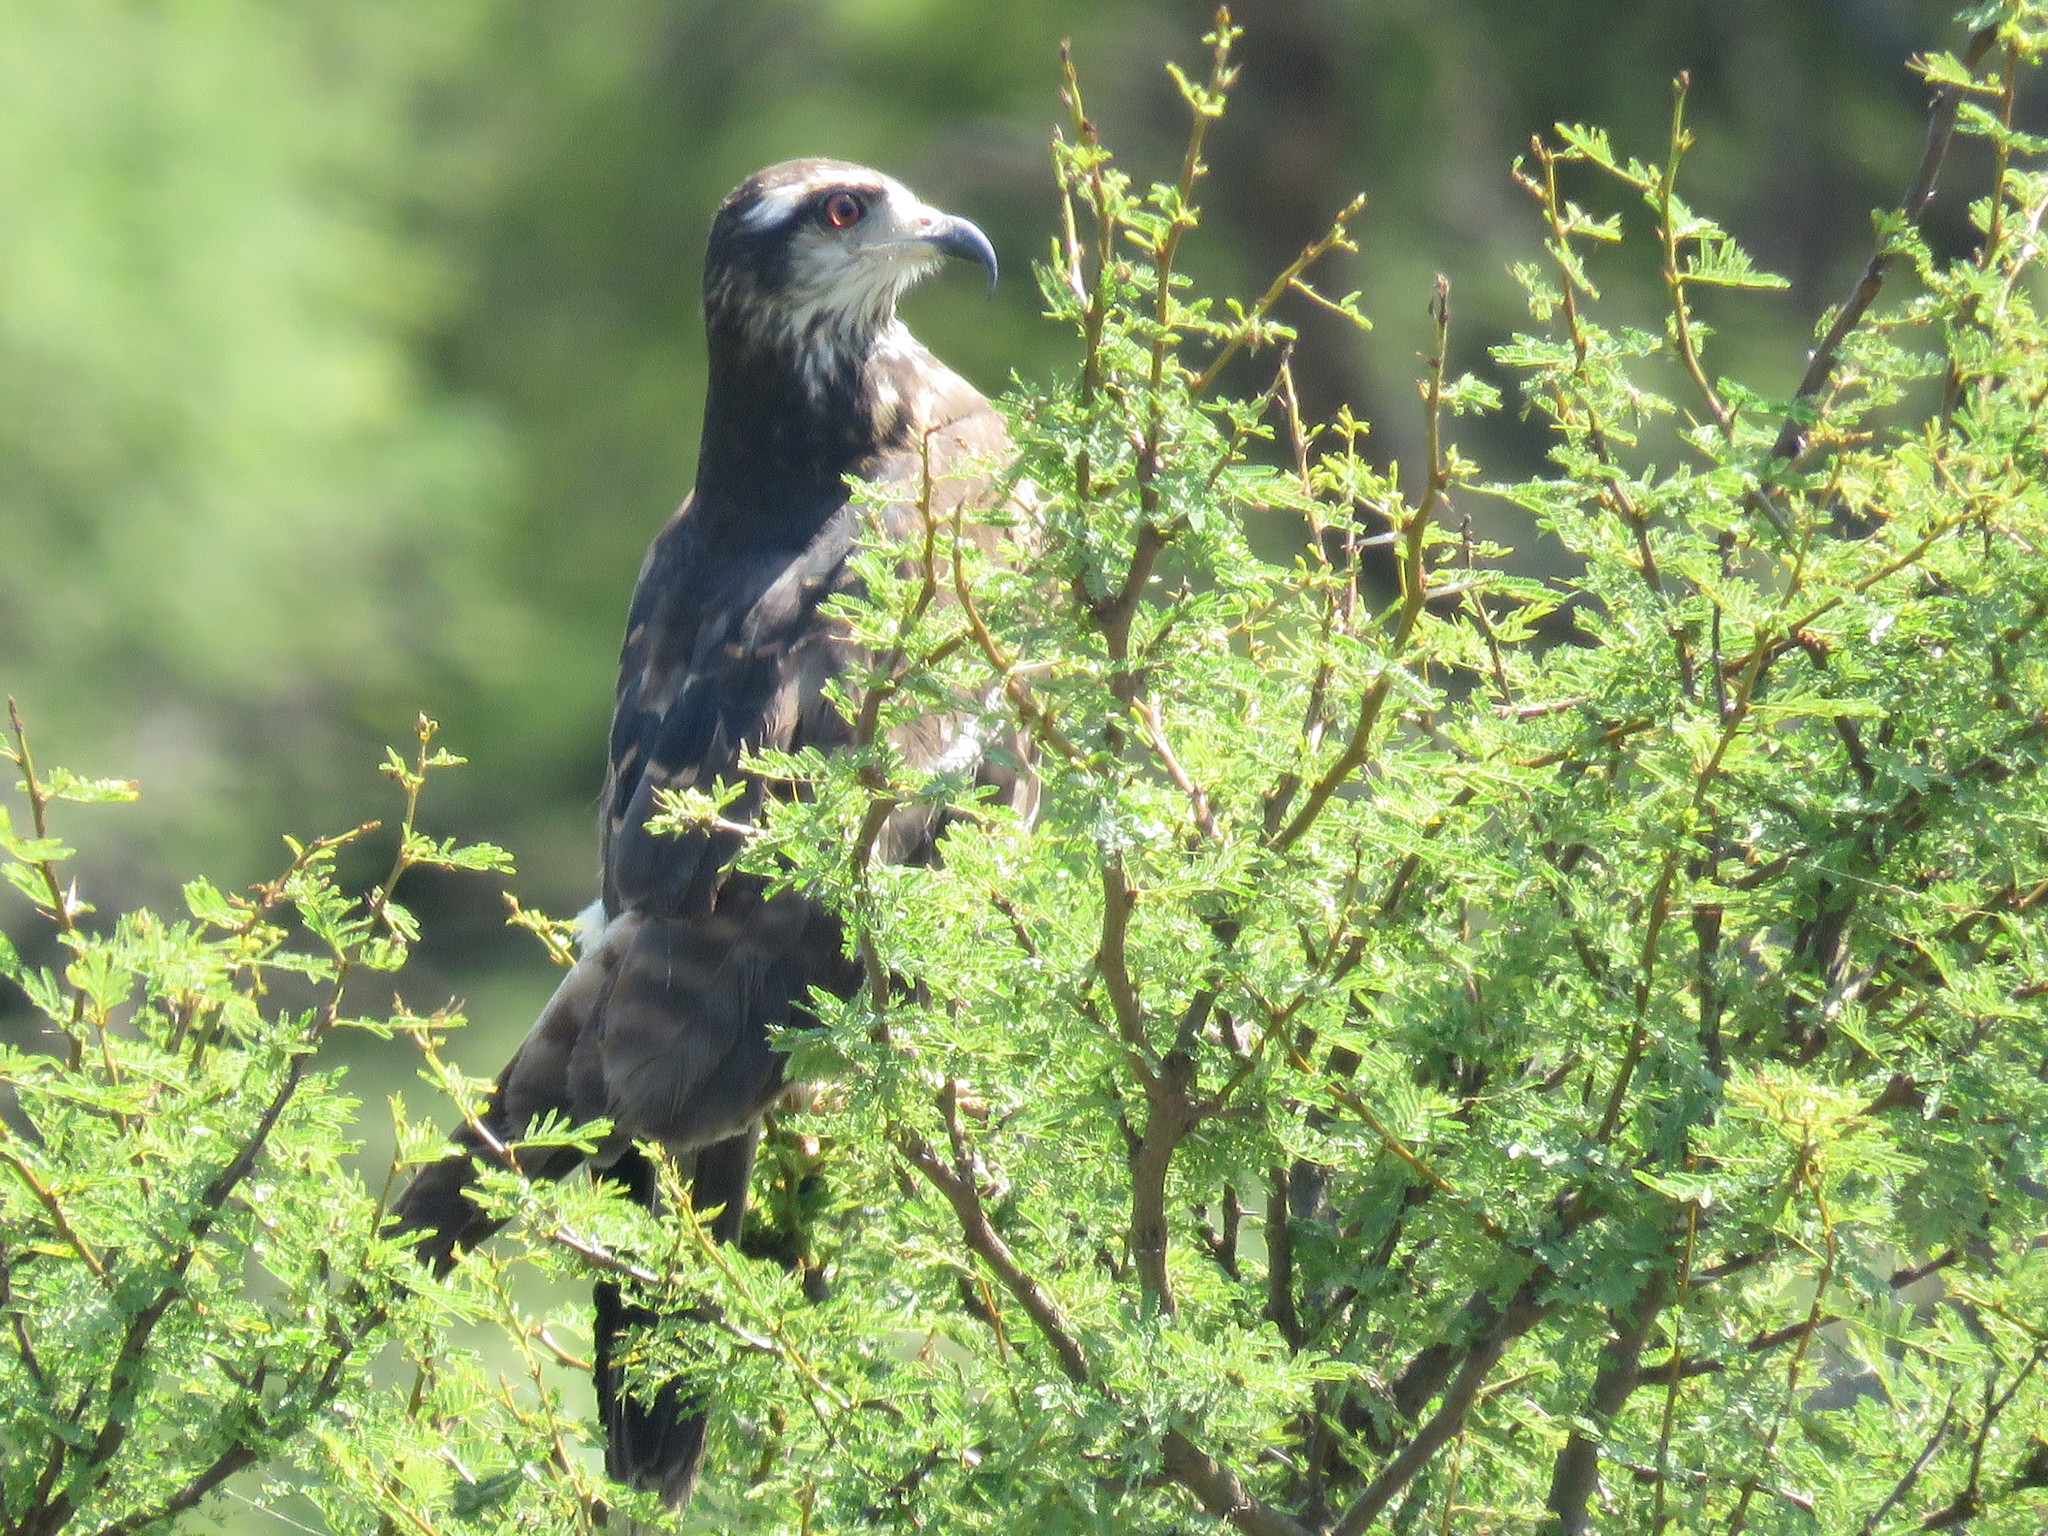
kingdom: Animalia
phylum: Chordata
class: Aves
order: Accipitriformes
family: Accipitridae
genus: Rostrhamus
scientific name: Rostrhamus sociabilis
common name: Snail kite
